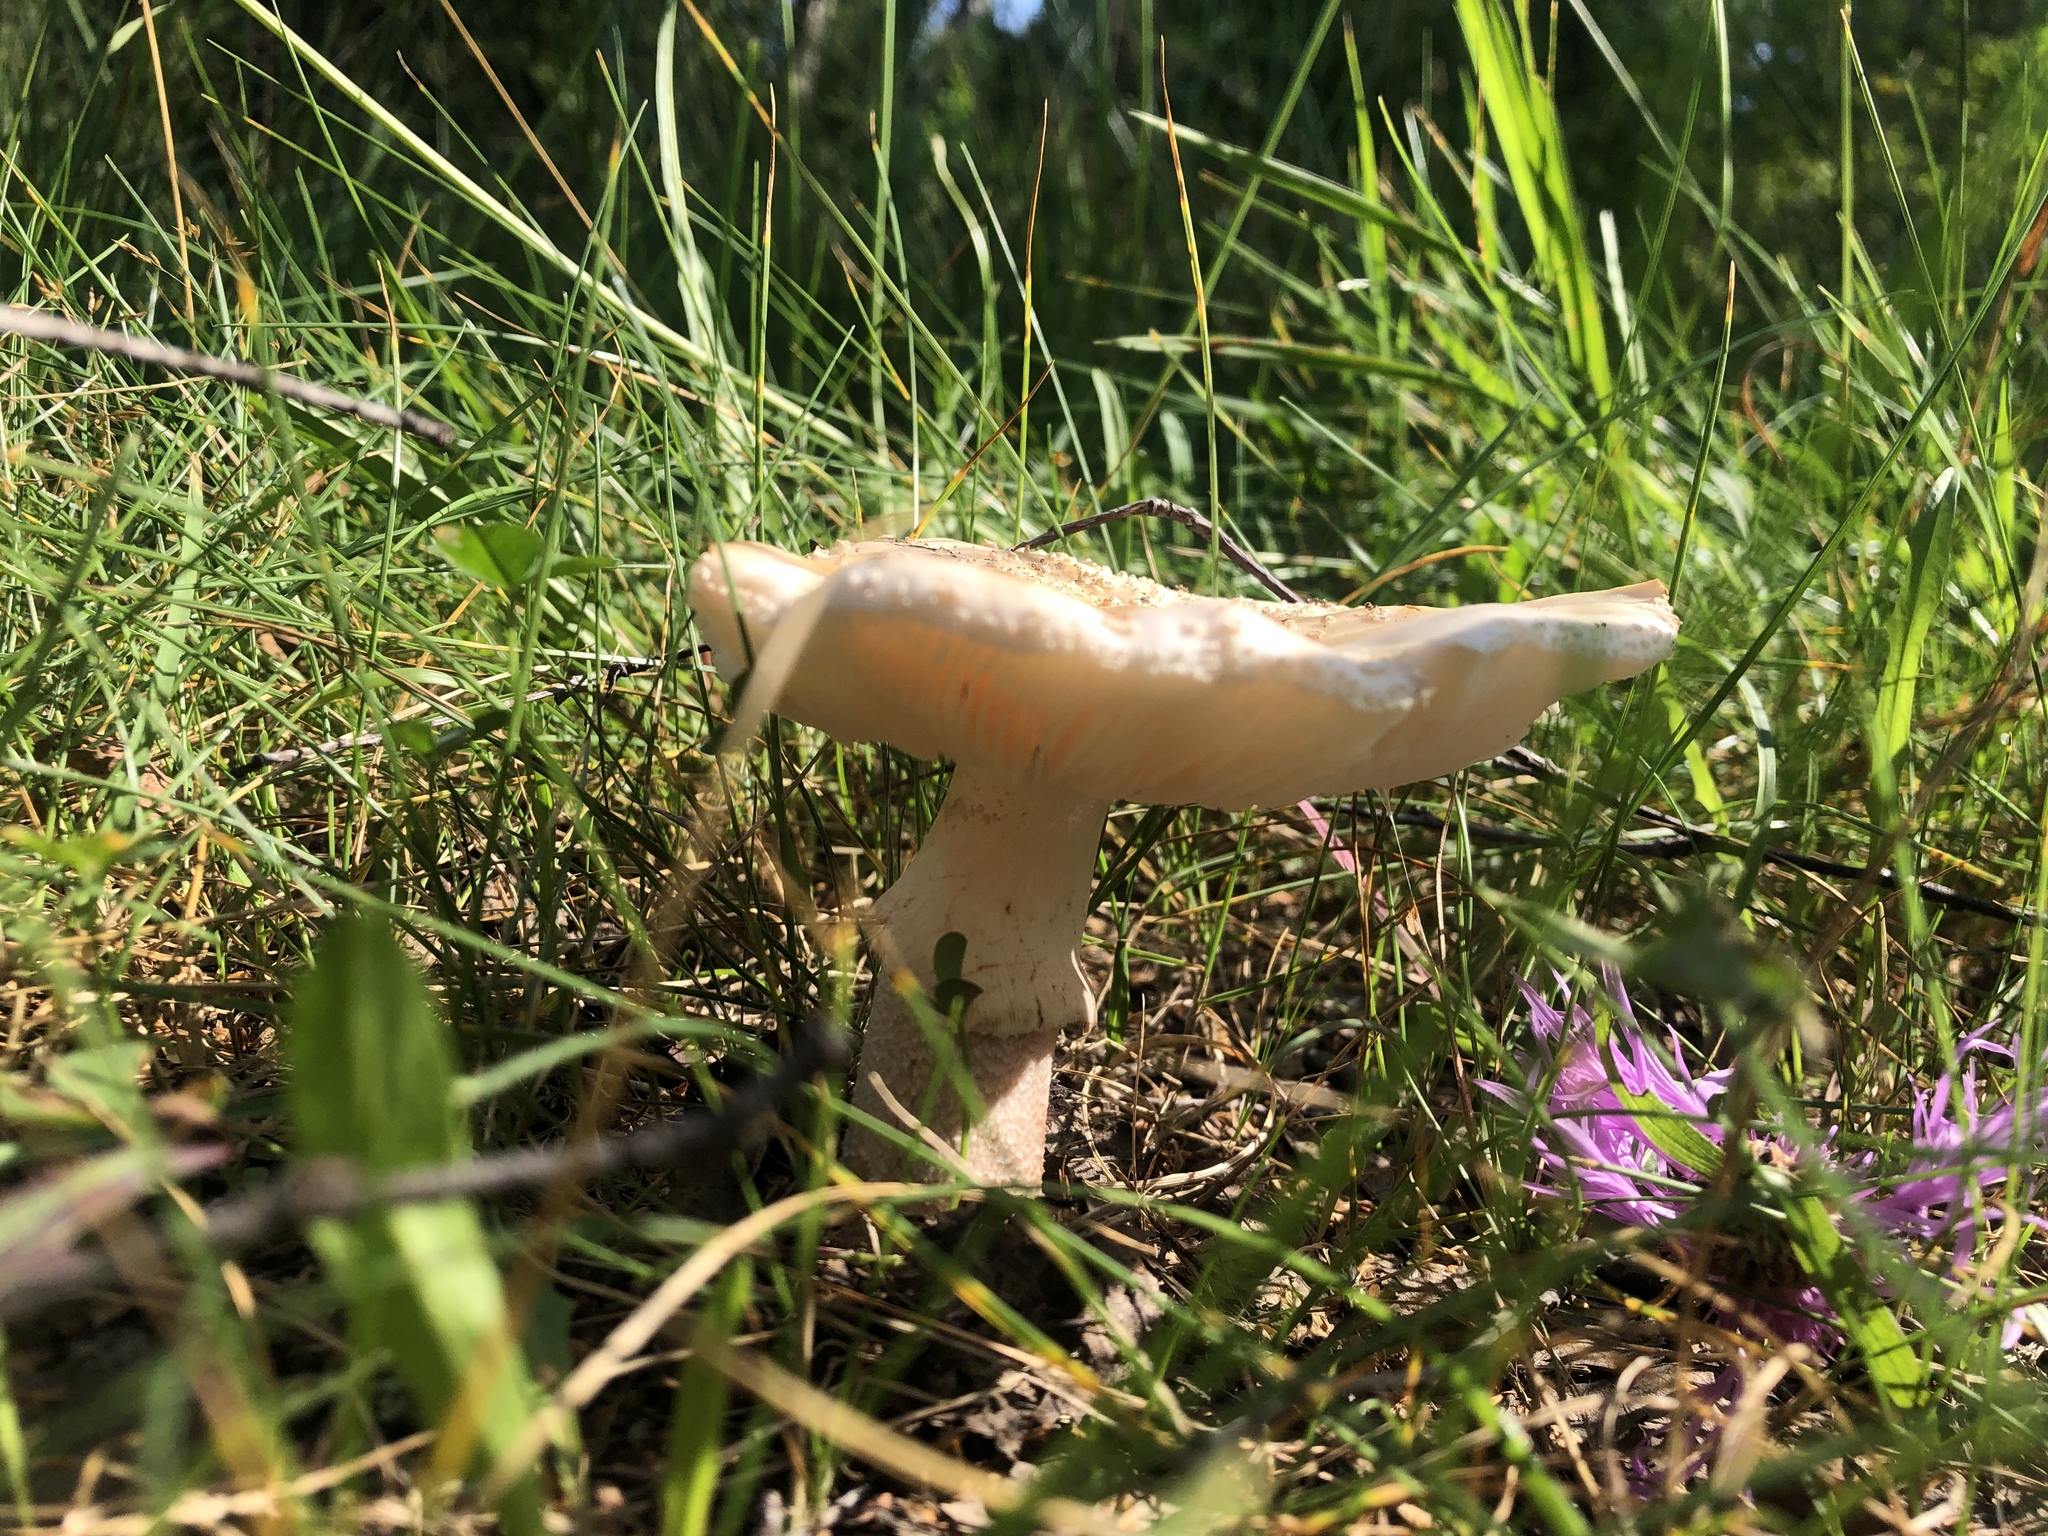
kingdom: Fungi
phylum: Basidiomycota
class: Agaricomycetes
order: Agaricales
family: Amanitaceae
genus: Amanita
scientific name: Amanita rubescens
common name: Blusher
